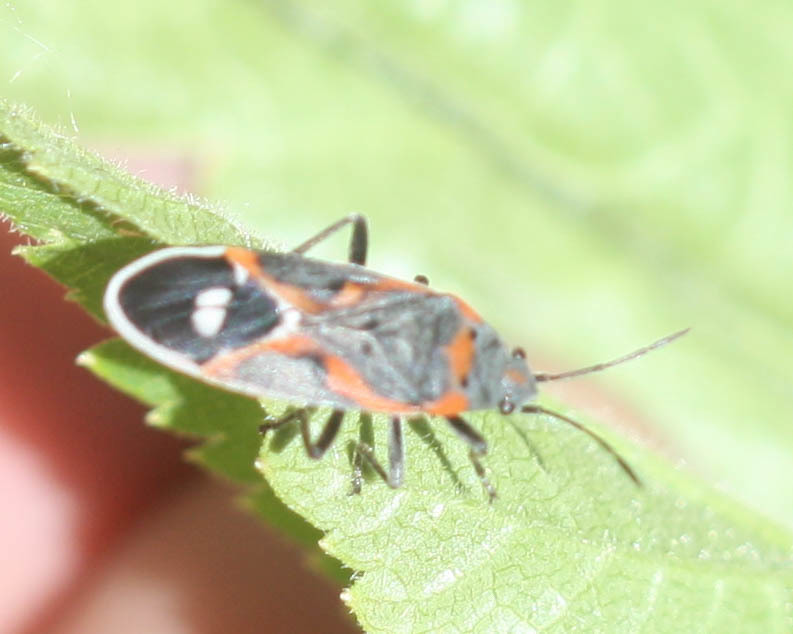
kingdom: Animalia
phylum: Arthropoda
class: Insecta
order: Hemiptera
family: Lygaeidae
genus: Lygaeus
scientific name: Lygaeus kalmii
